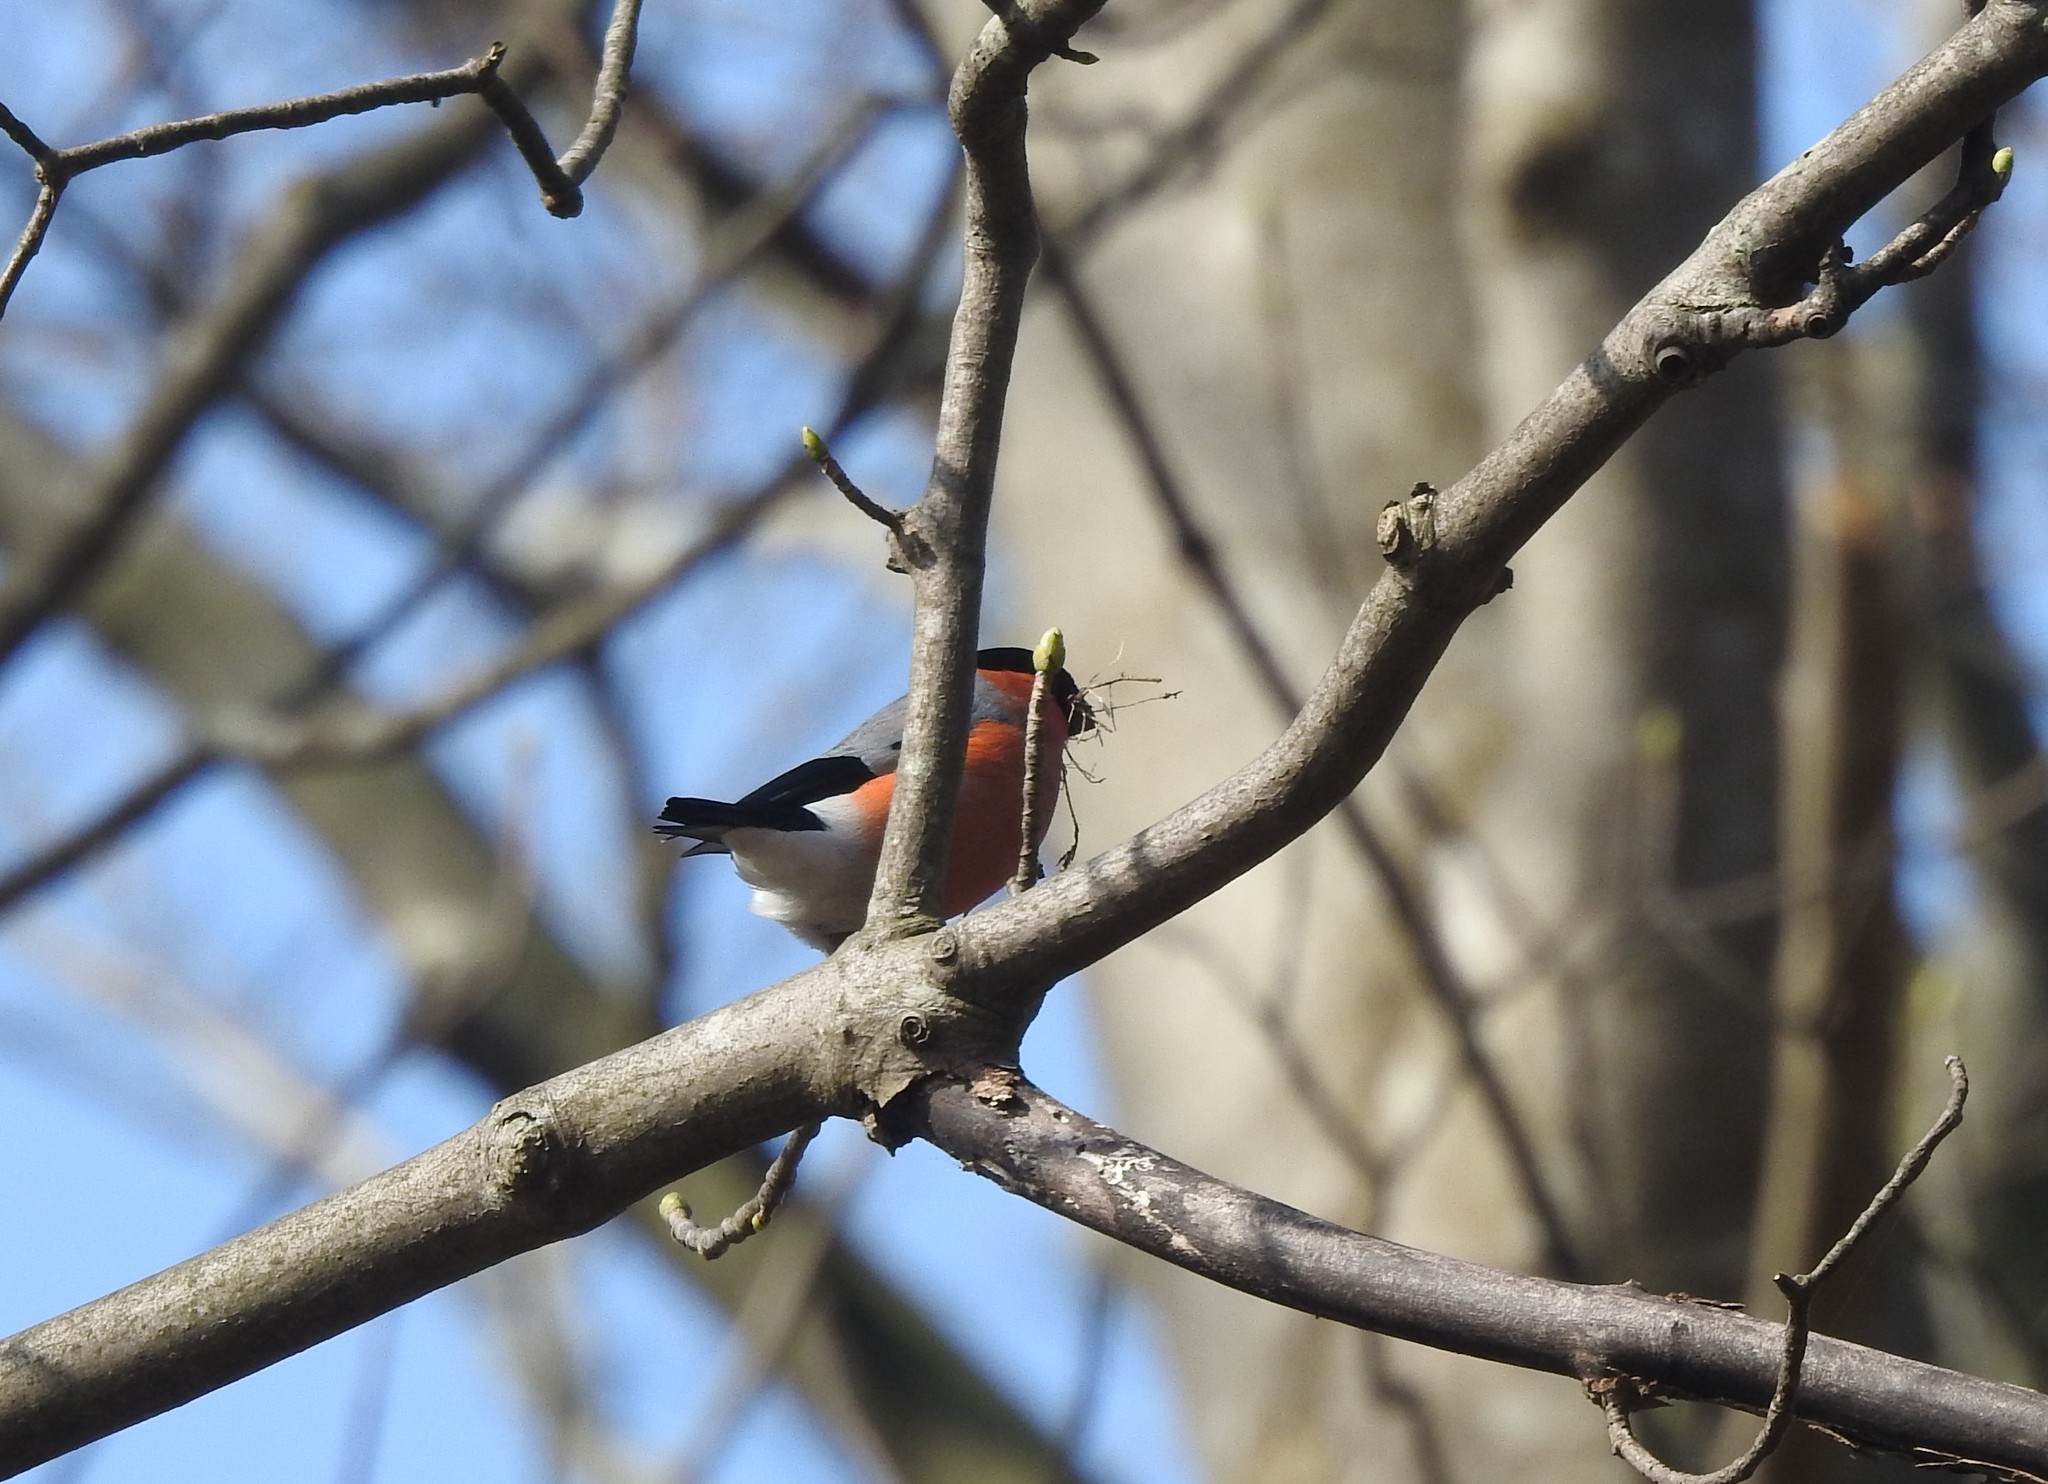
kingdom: Animalia
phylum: Chordata
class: Aves
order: Passeriformes
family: Fringillidae
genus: Pyrrhula
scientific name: Pyrrhula pyrrhula
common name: Eurasian bullfinch
